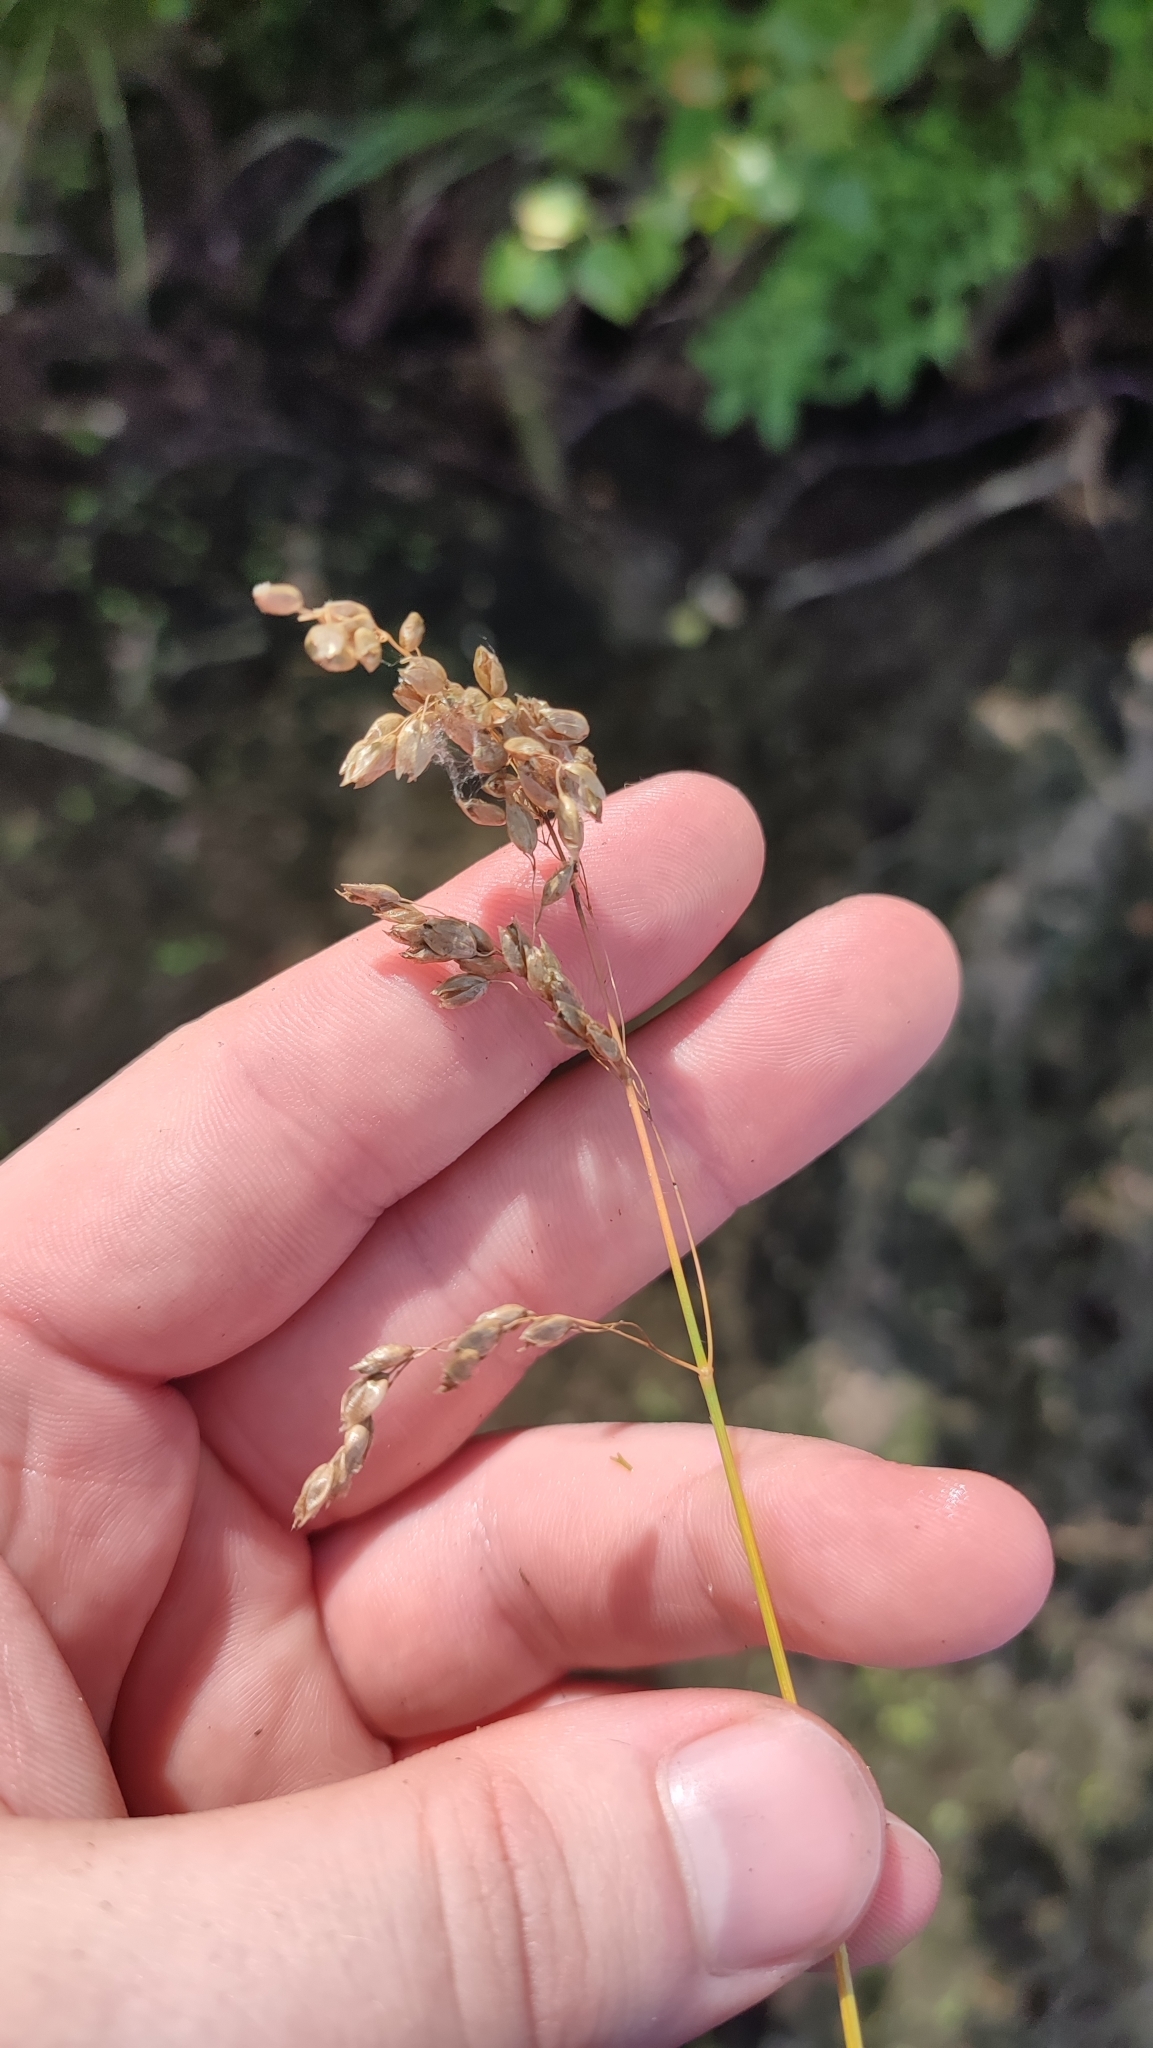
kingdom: Plantae
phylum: Tracheophyta
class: Liliopsida
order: Poales
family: Poaceae
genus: Anthoxanthum
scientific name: Anthoxanthum nitens
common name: Holy grass
